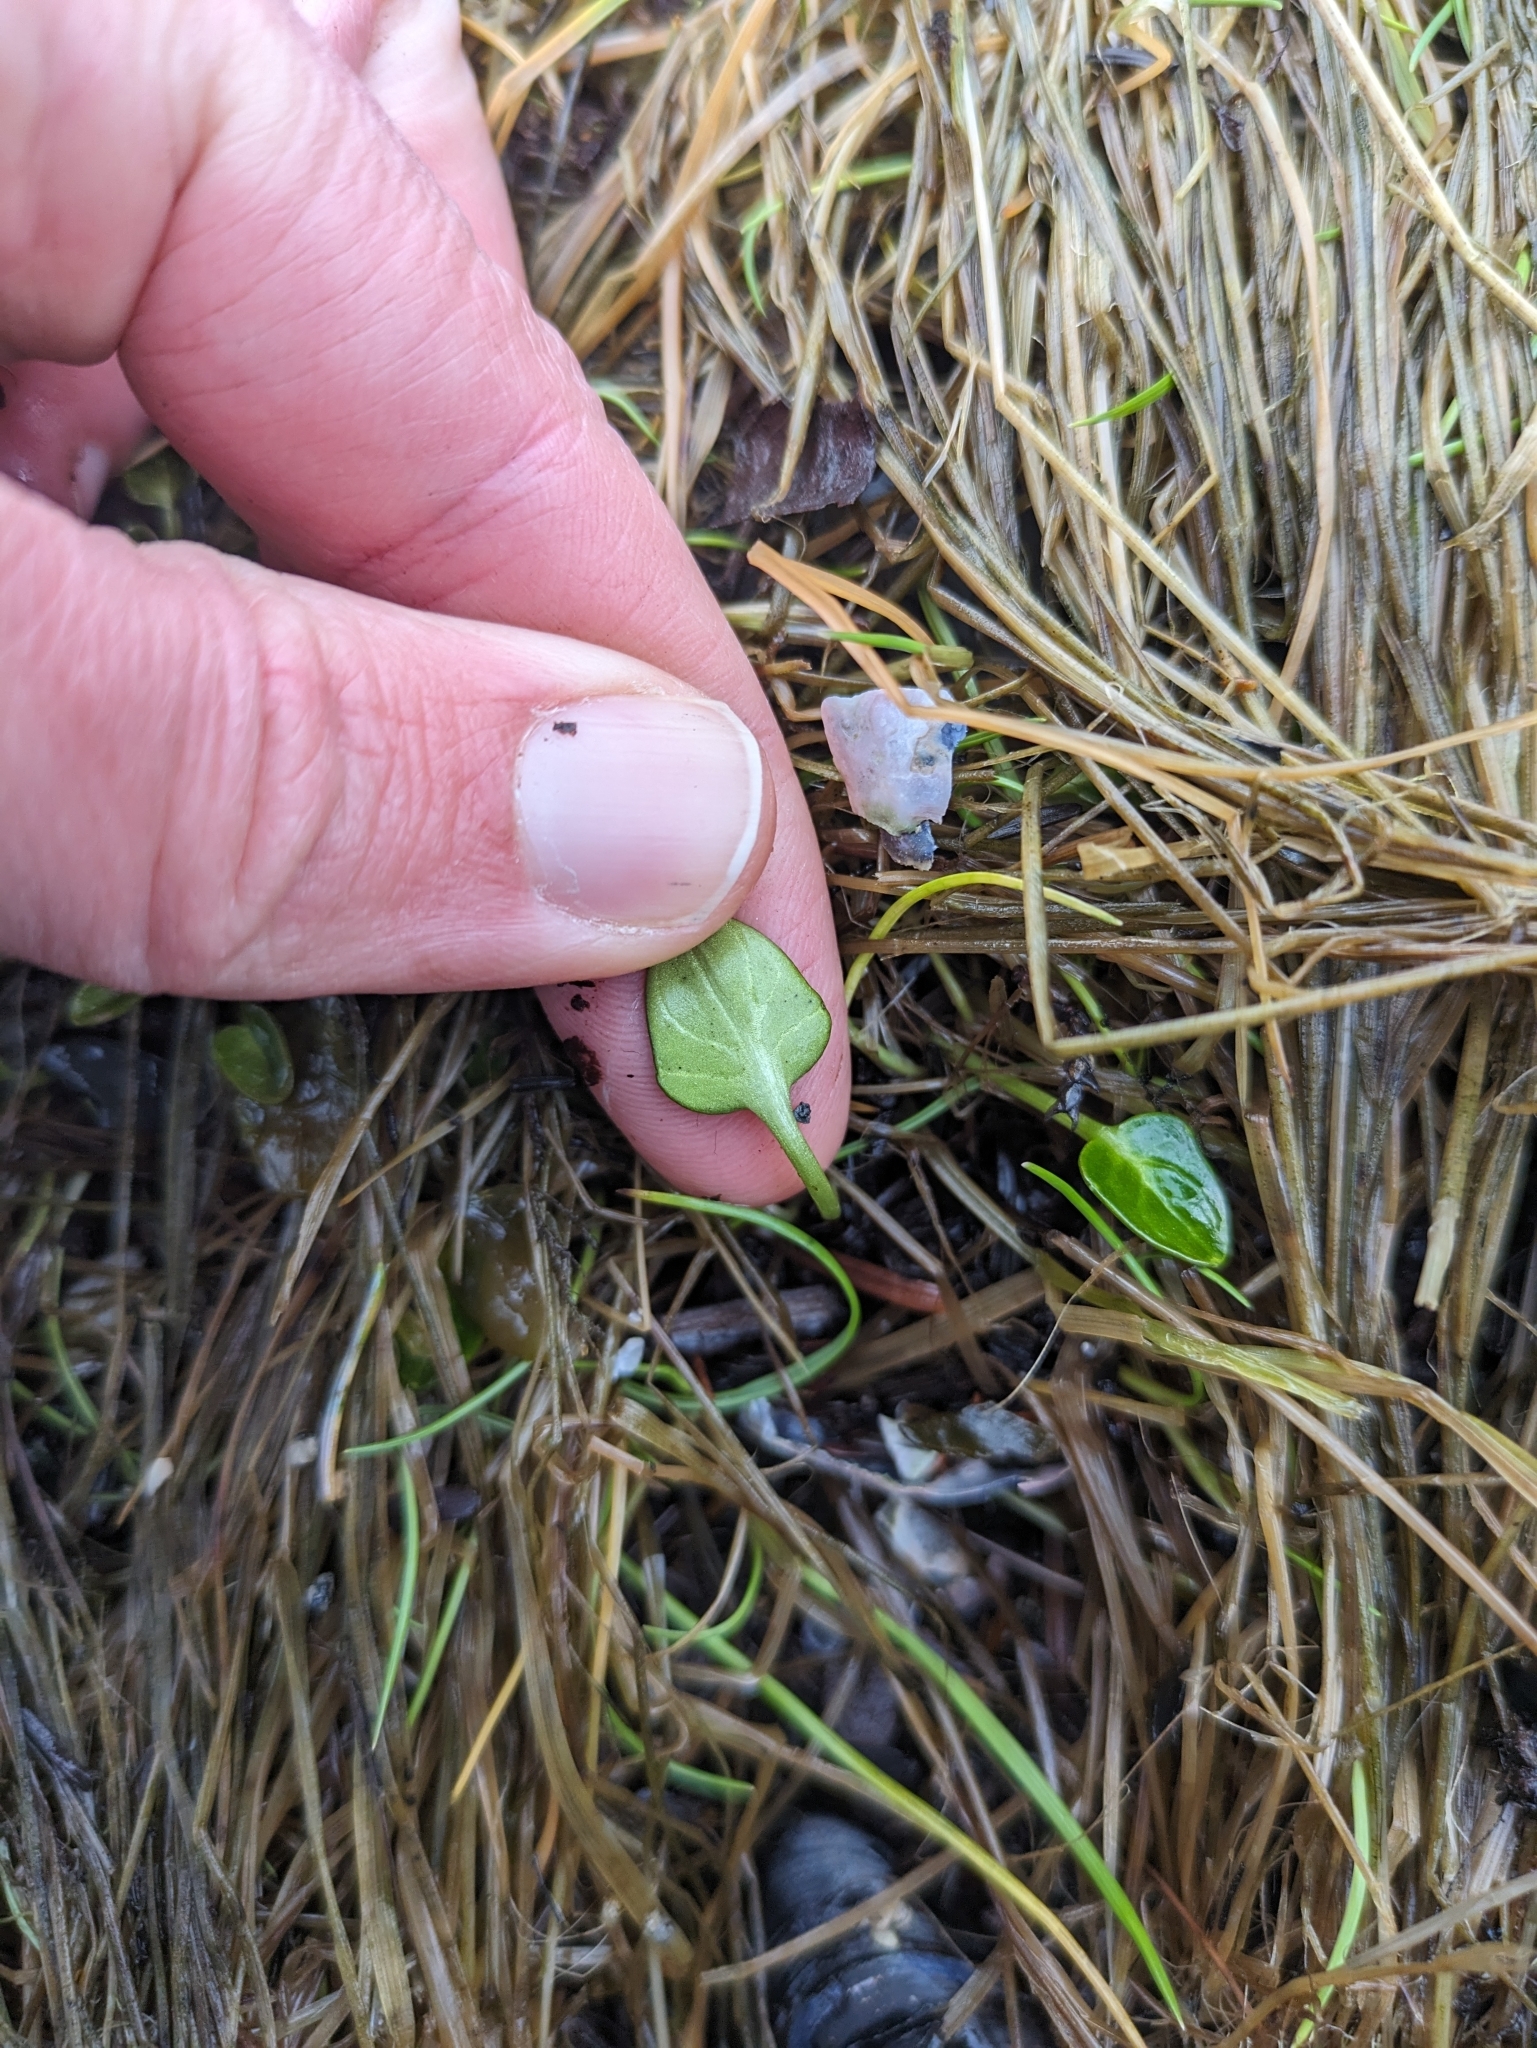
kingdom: Plantae
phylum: Tracheophyta
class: Magnoliopsida
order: Brassicales
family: Brassicaceae
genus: Cochlearia
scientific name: Cochlearia groenlandica
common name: Danish scurvygrass
